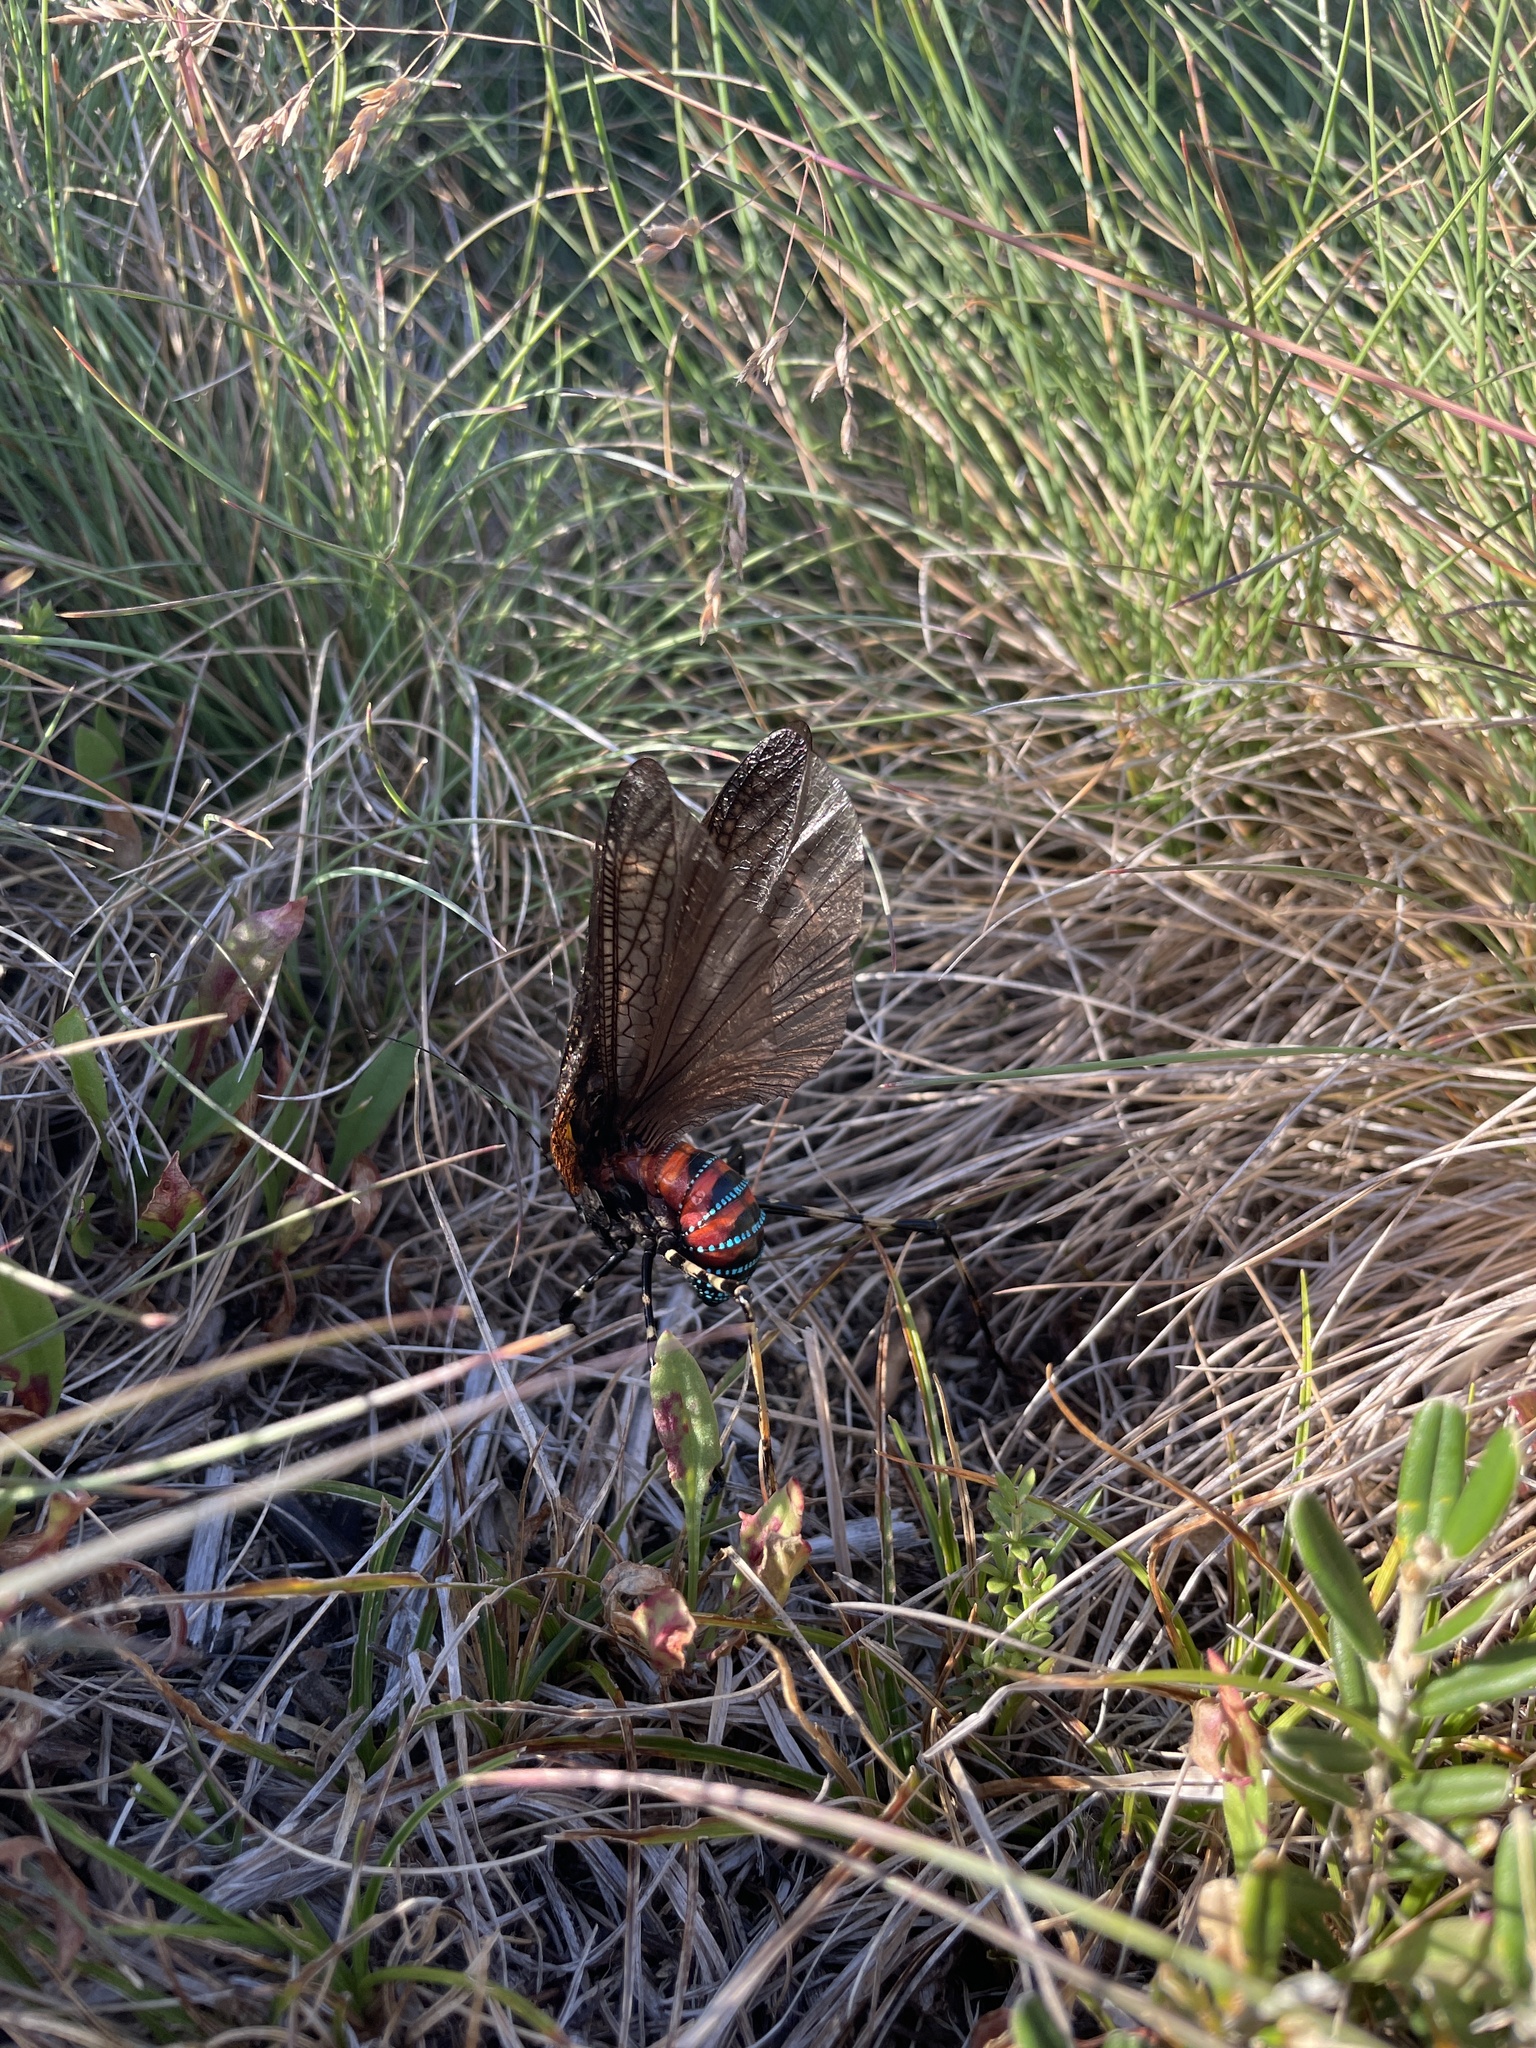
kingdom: Animalia
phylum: Arthropoda
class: Insecta
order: Orthoptera
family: Tettigoniidae
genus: Acripeza
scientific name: Acripeza reticulata
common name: Mountain katydid
